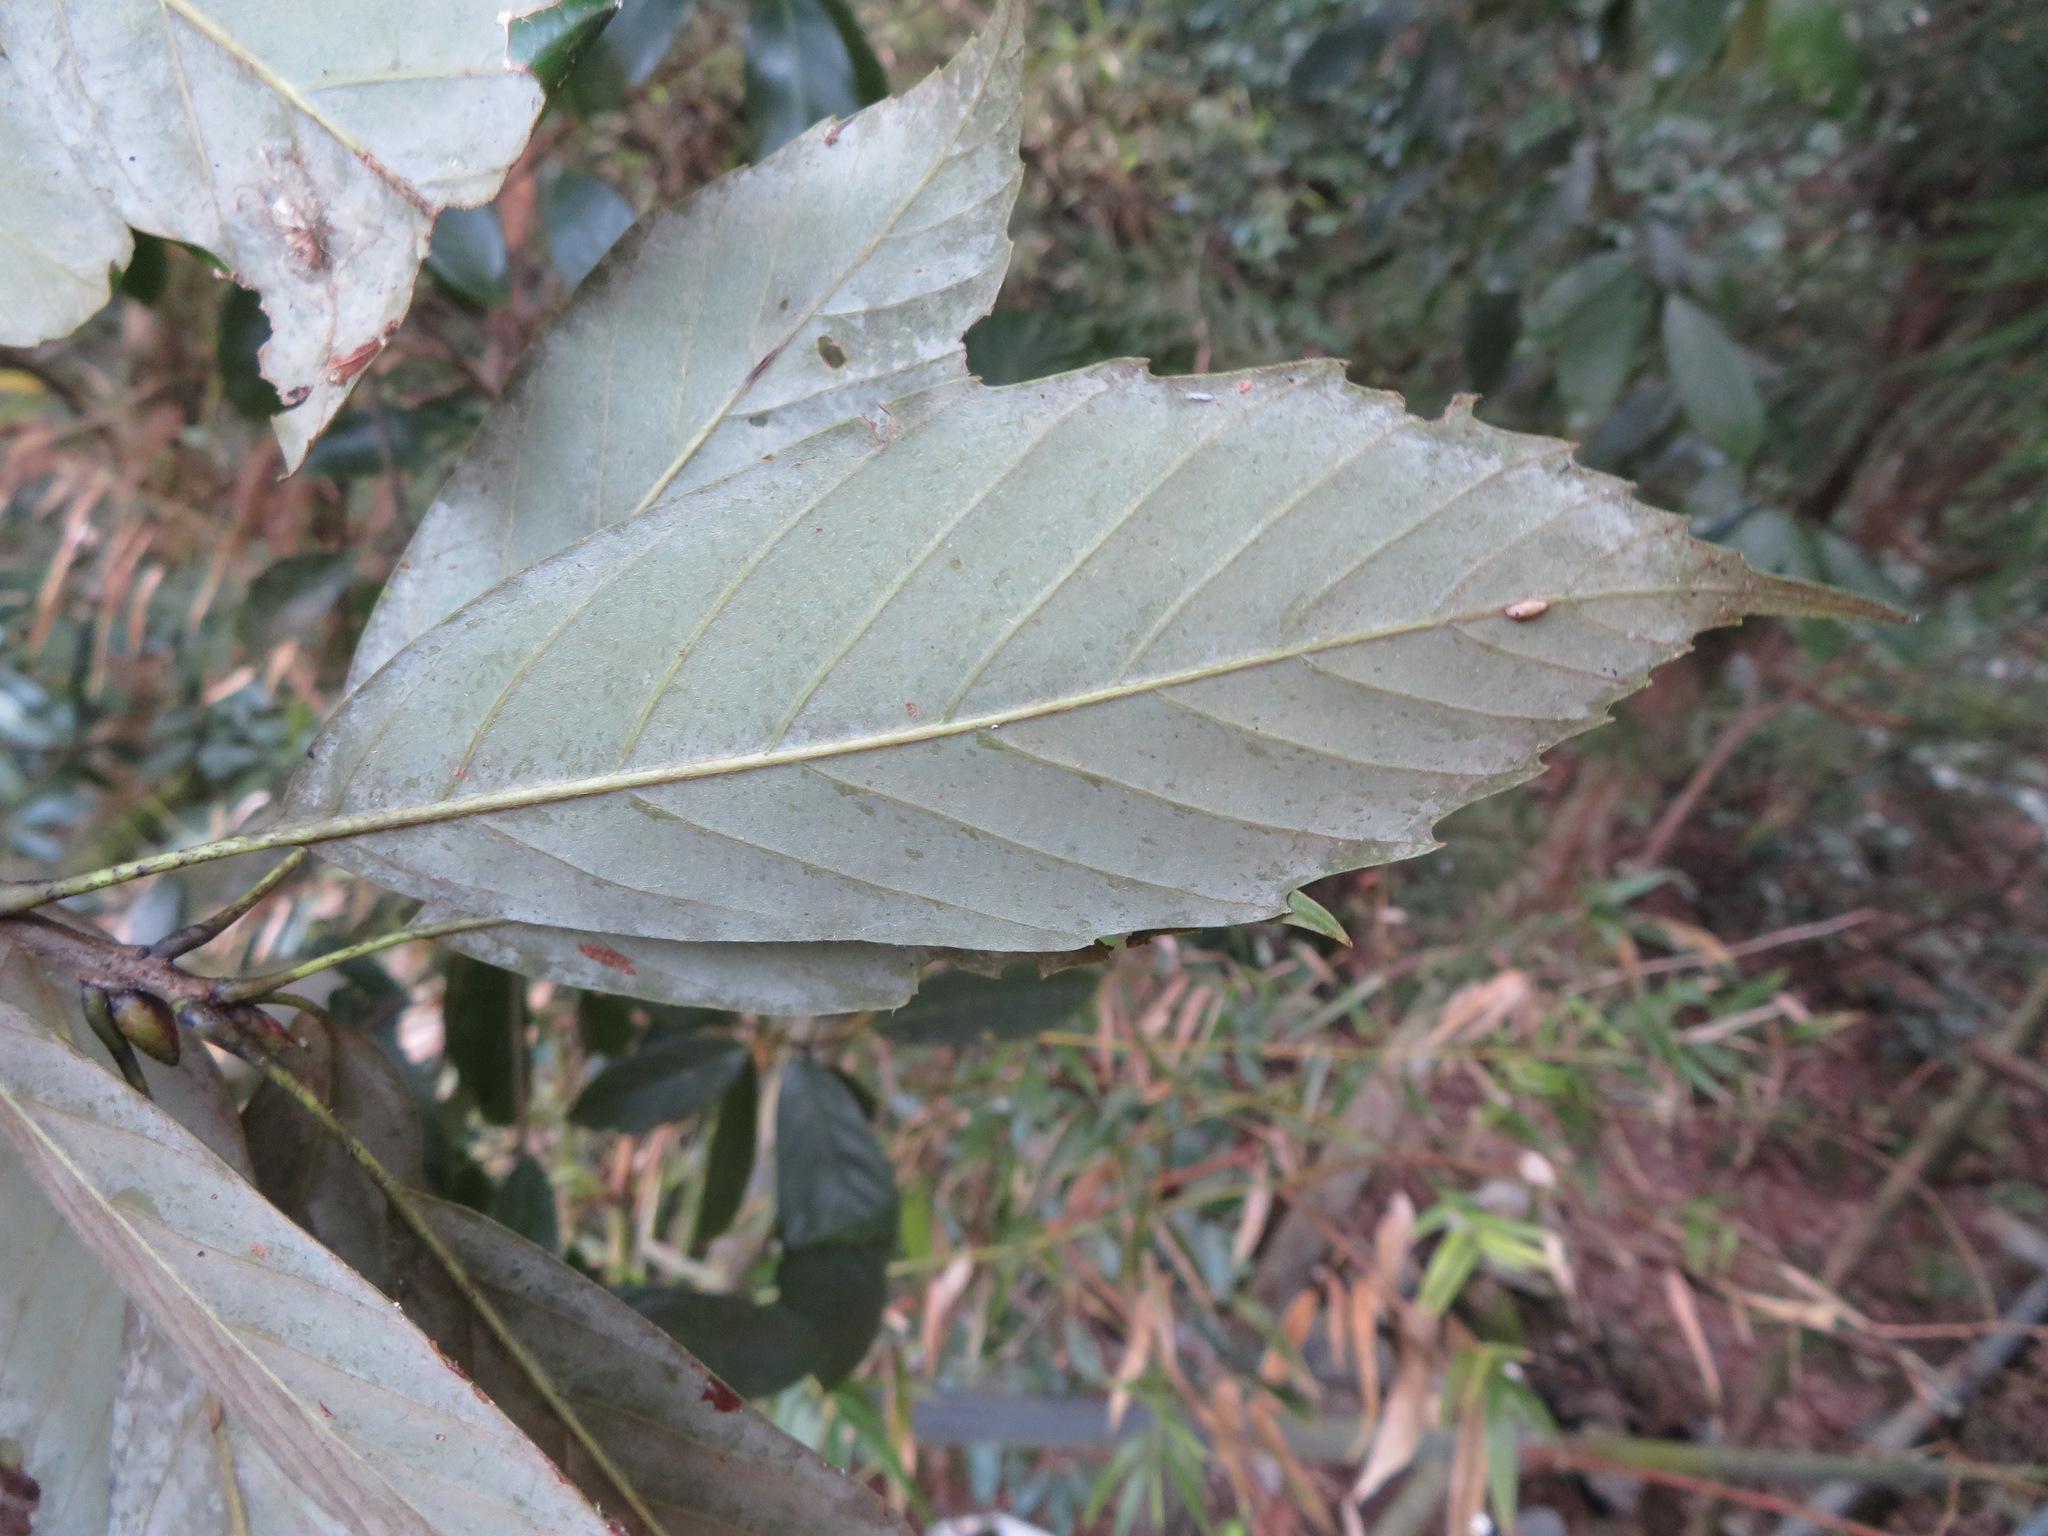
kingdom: Plantae
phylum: Tracheophyta
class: Magnoliopsida
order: Fagales
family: Fagaceae
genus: Quercus
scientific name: Quercus glauca
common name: Ring-cup oak
